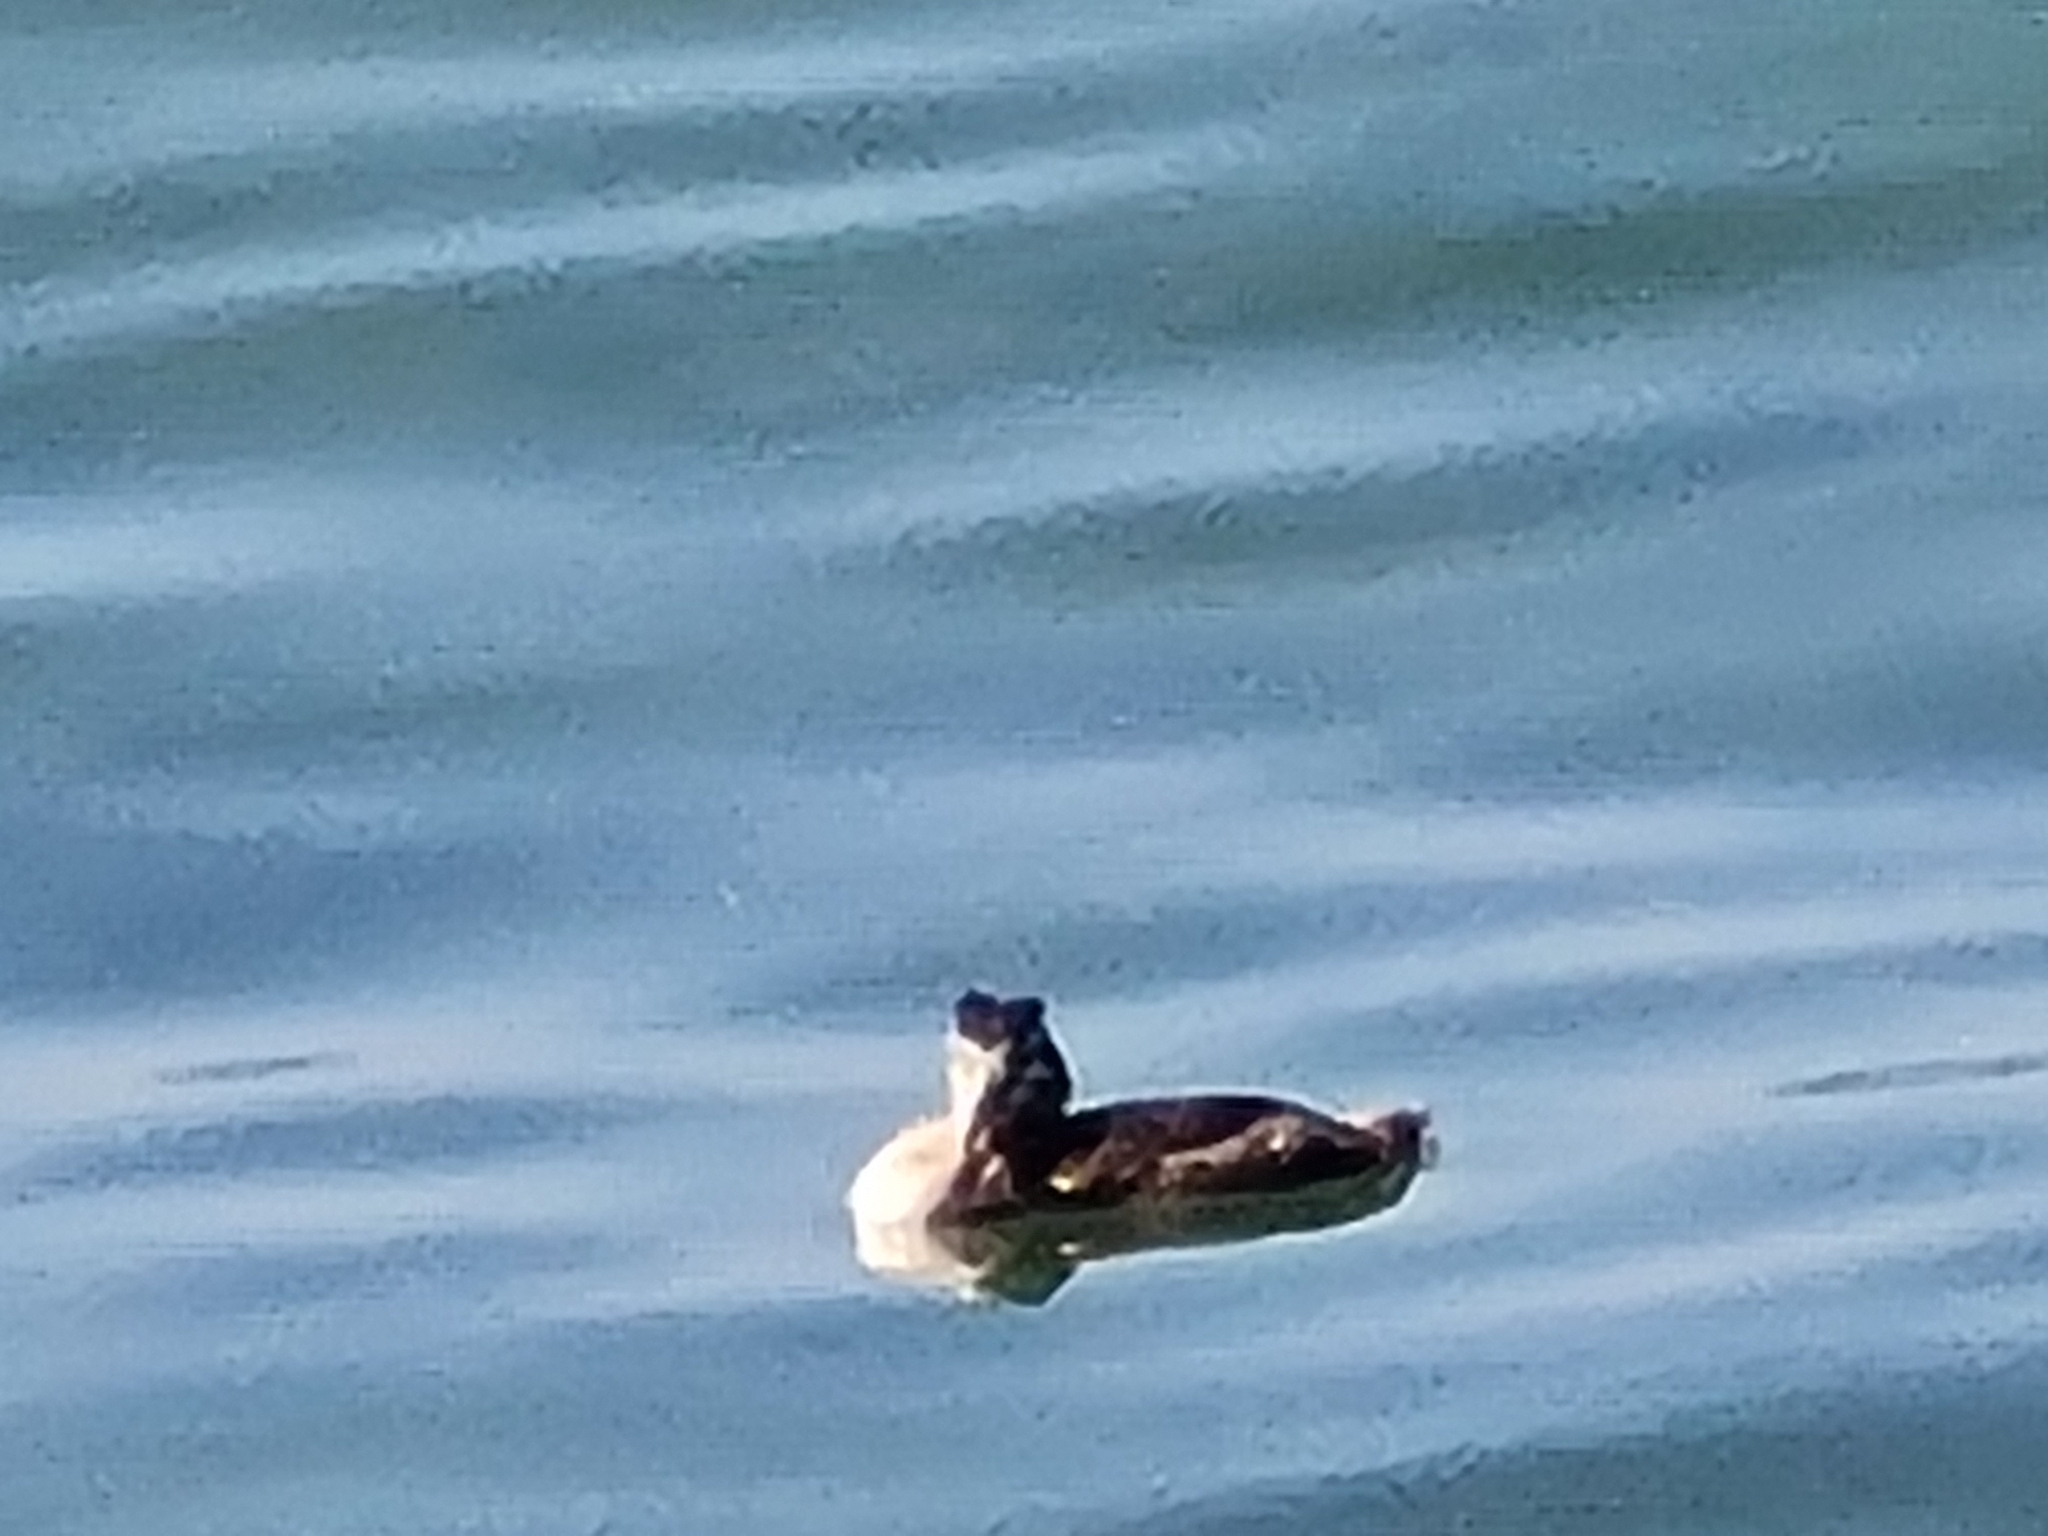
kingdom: Animalia
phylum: Chordata
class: Aves
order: Podicipediformes
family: Podicipedidae
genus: Podiceps
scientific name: Podiceps cristatus
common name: Great crested grebe
